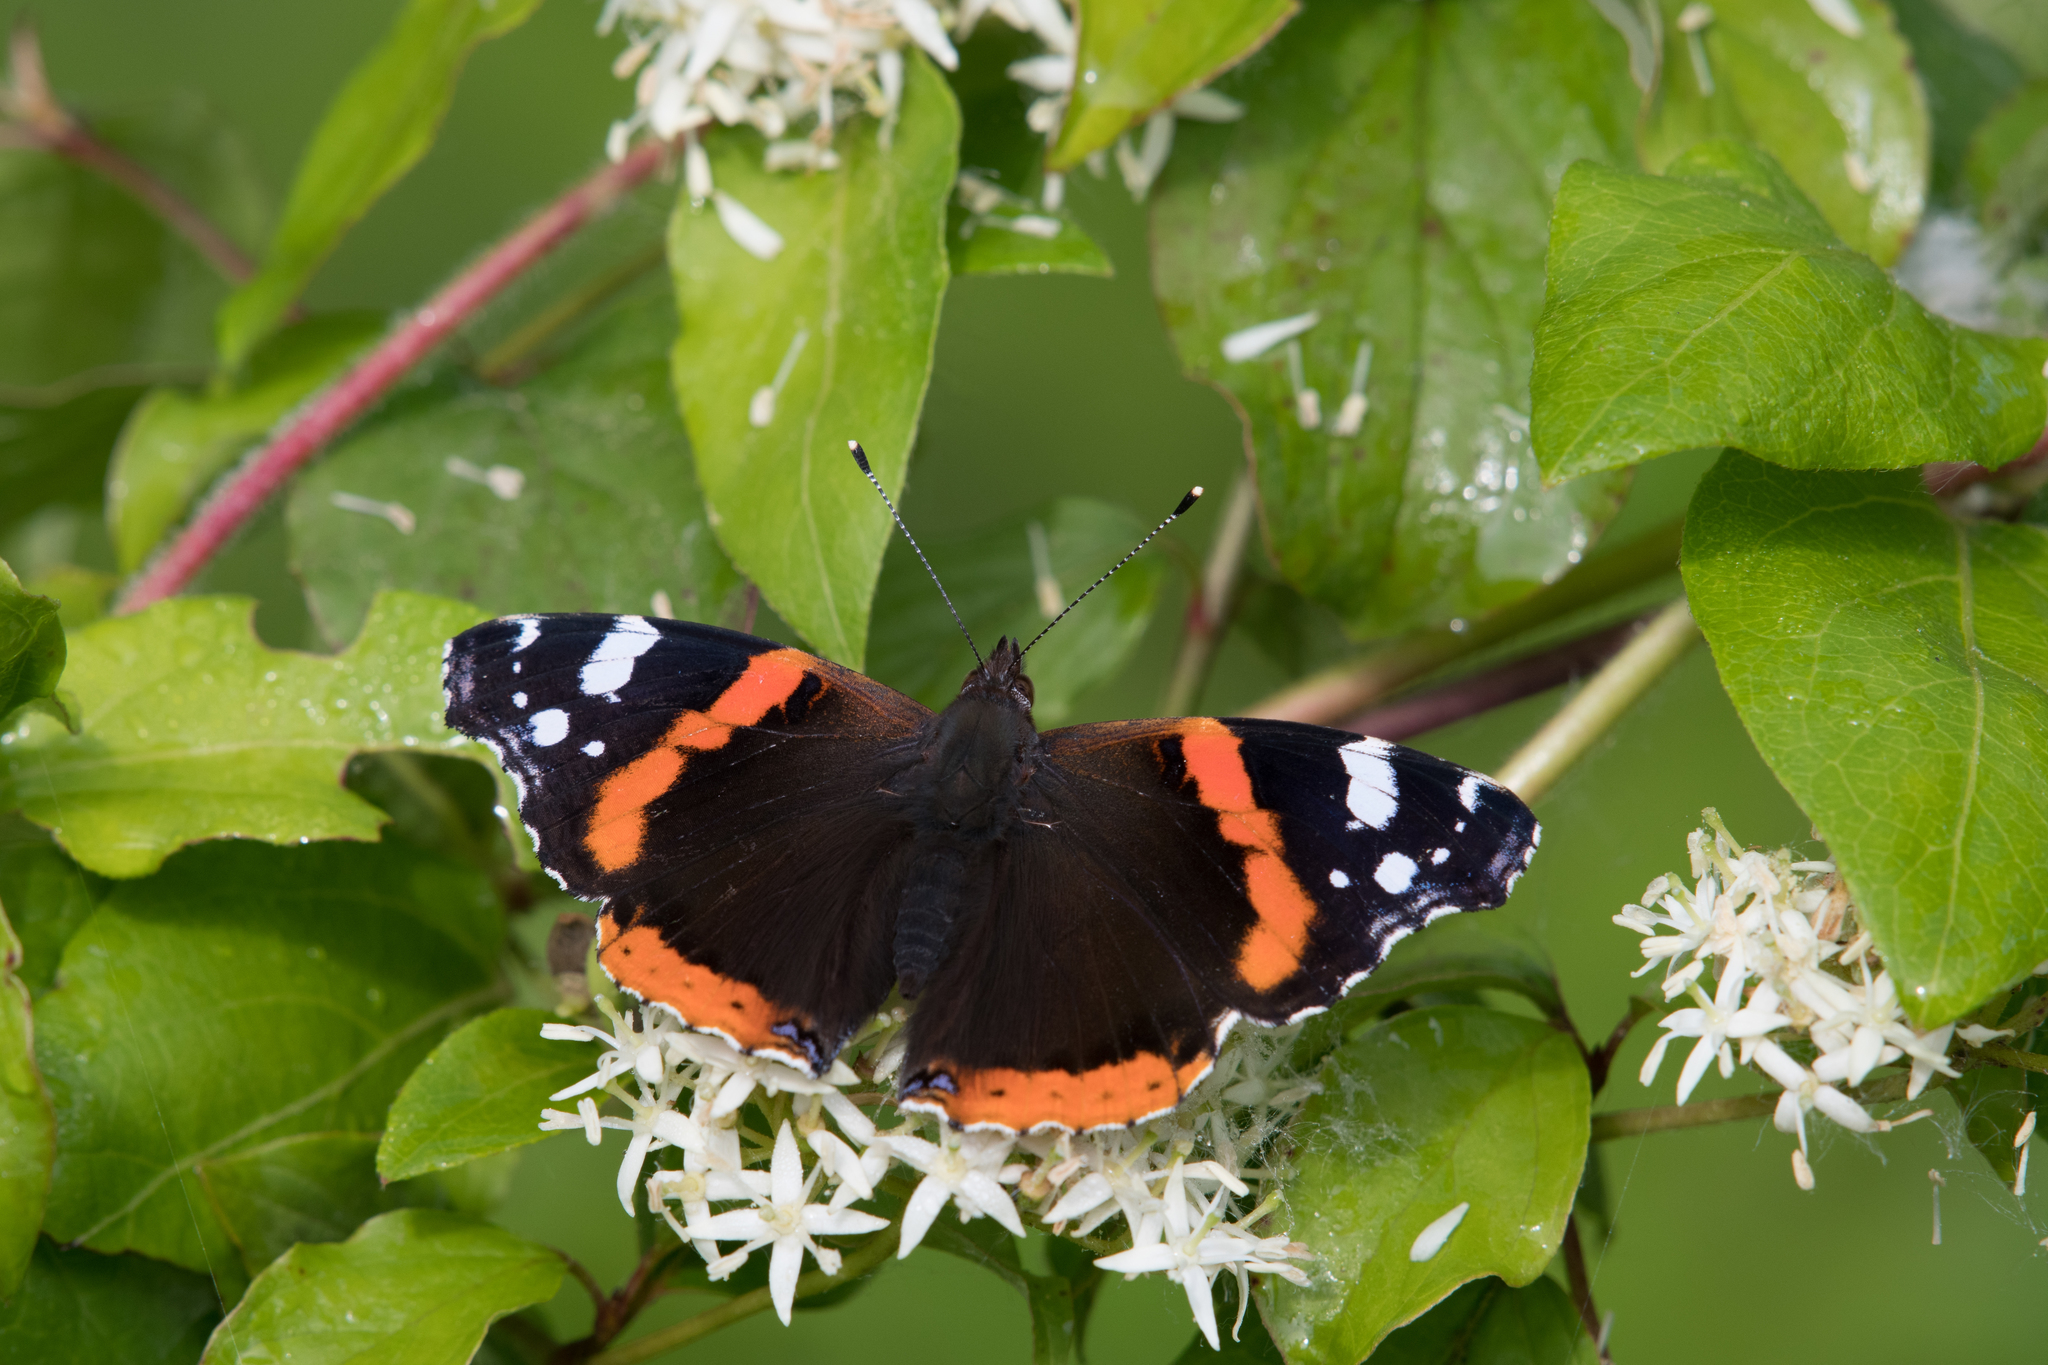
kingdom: Animalia
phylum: Arthropoda
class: Insecta
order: Lepidoptera
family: Nymphalidae
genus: Vanessa
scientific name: Vanessa atalanta
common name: Red admiral
